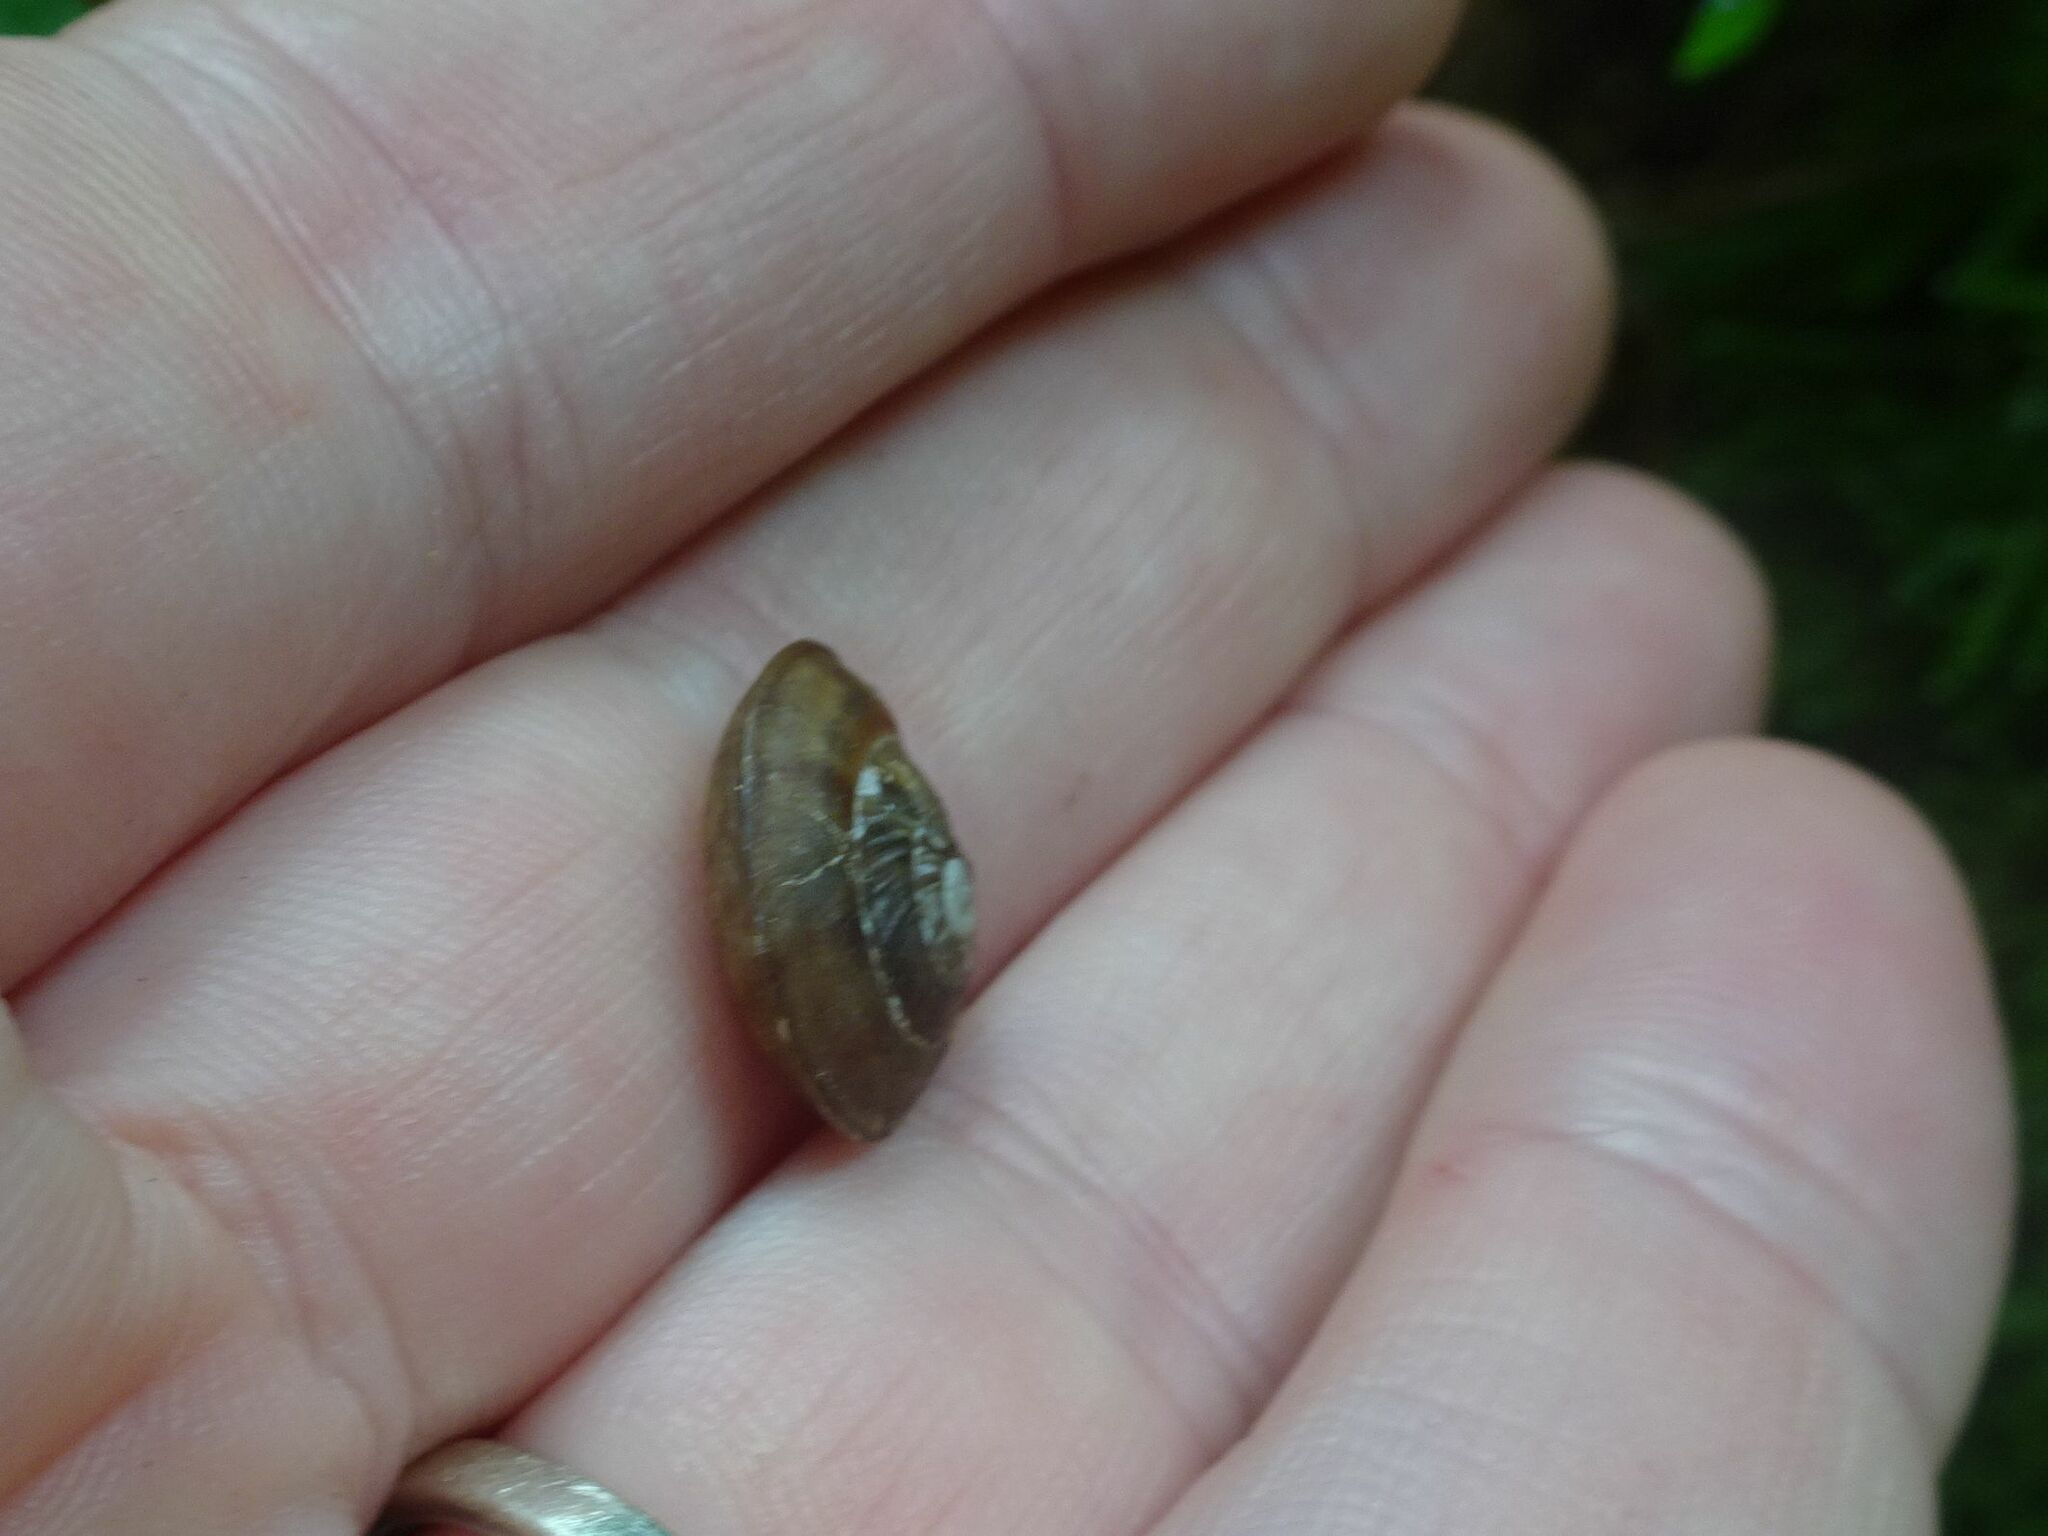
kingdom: Animalia
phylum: Mollusca
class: Gastropoda
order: Stylommatophora
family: Helicidae
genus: Helicigona
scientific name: Helicigona lapicida
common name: Lapidary snail
